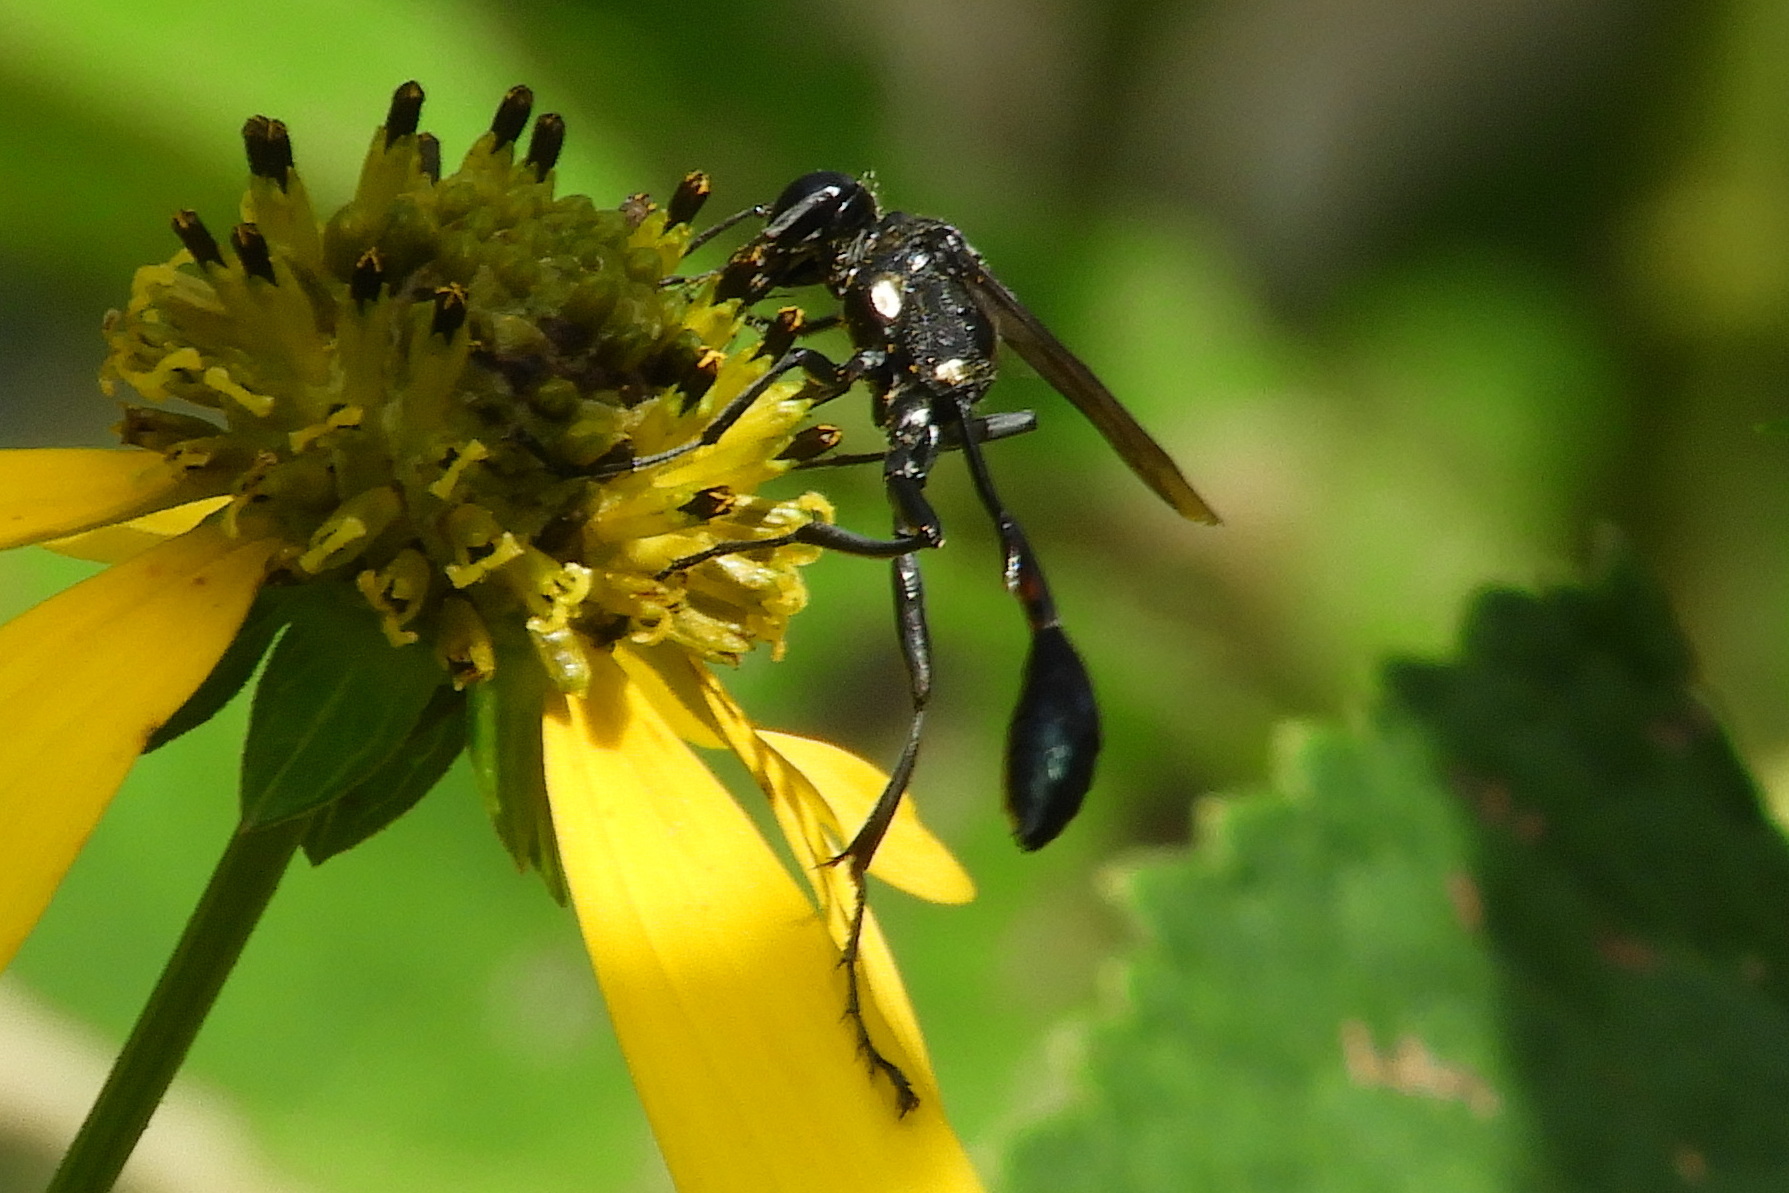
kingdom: Animalia
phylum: Arthropoda
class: Insecta
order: Hymenoptera
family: Sphecidae
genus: Eremnophila
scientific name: Eremnophila aureonotata
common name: Gold-marked thread-waisted wasp
